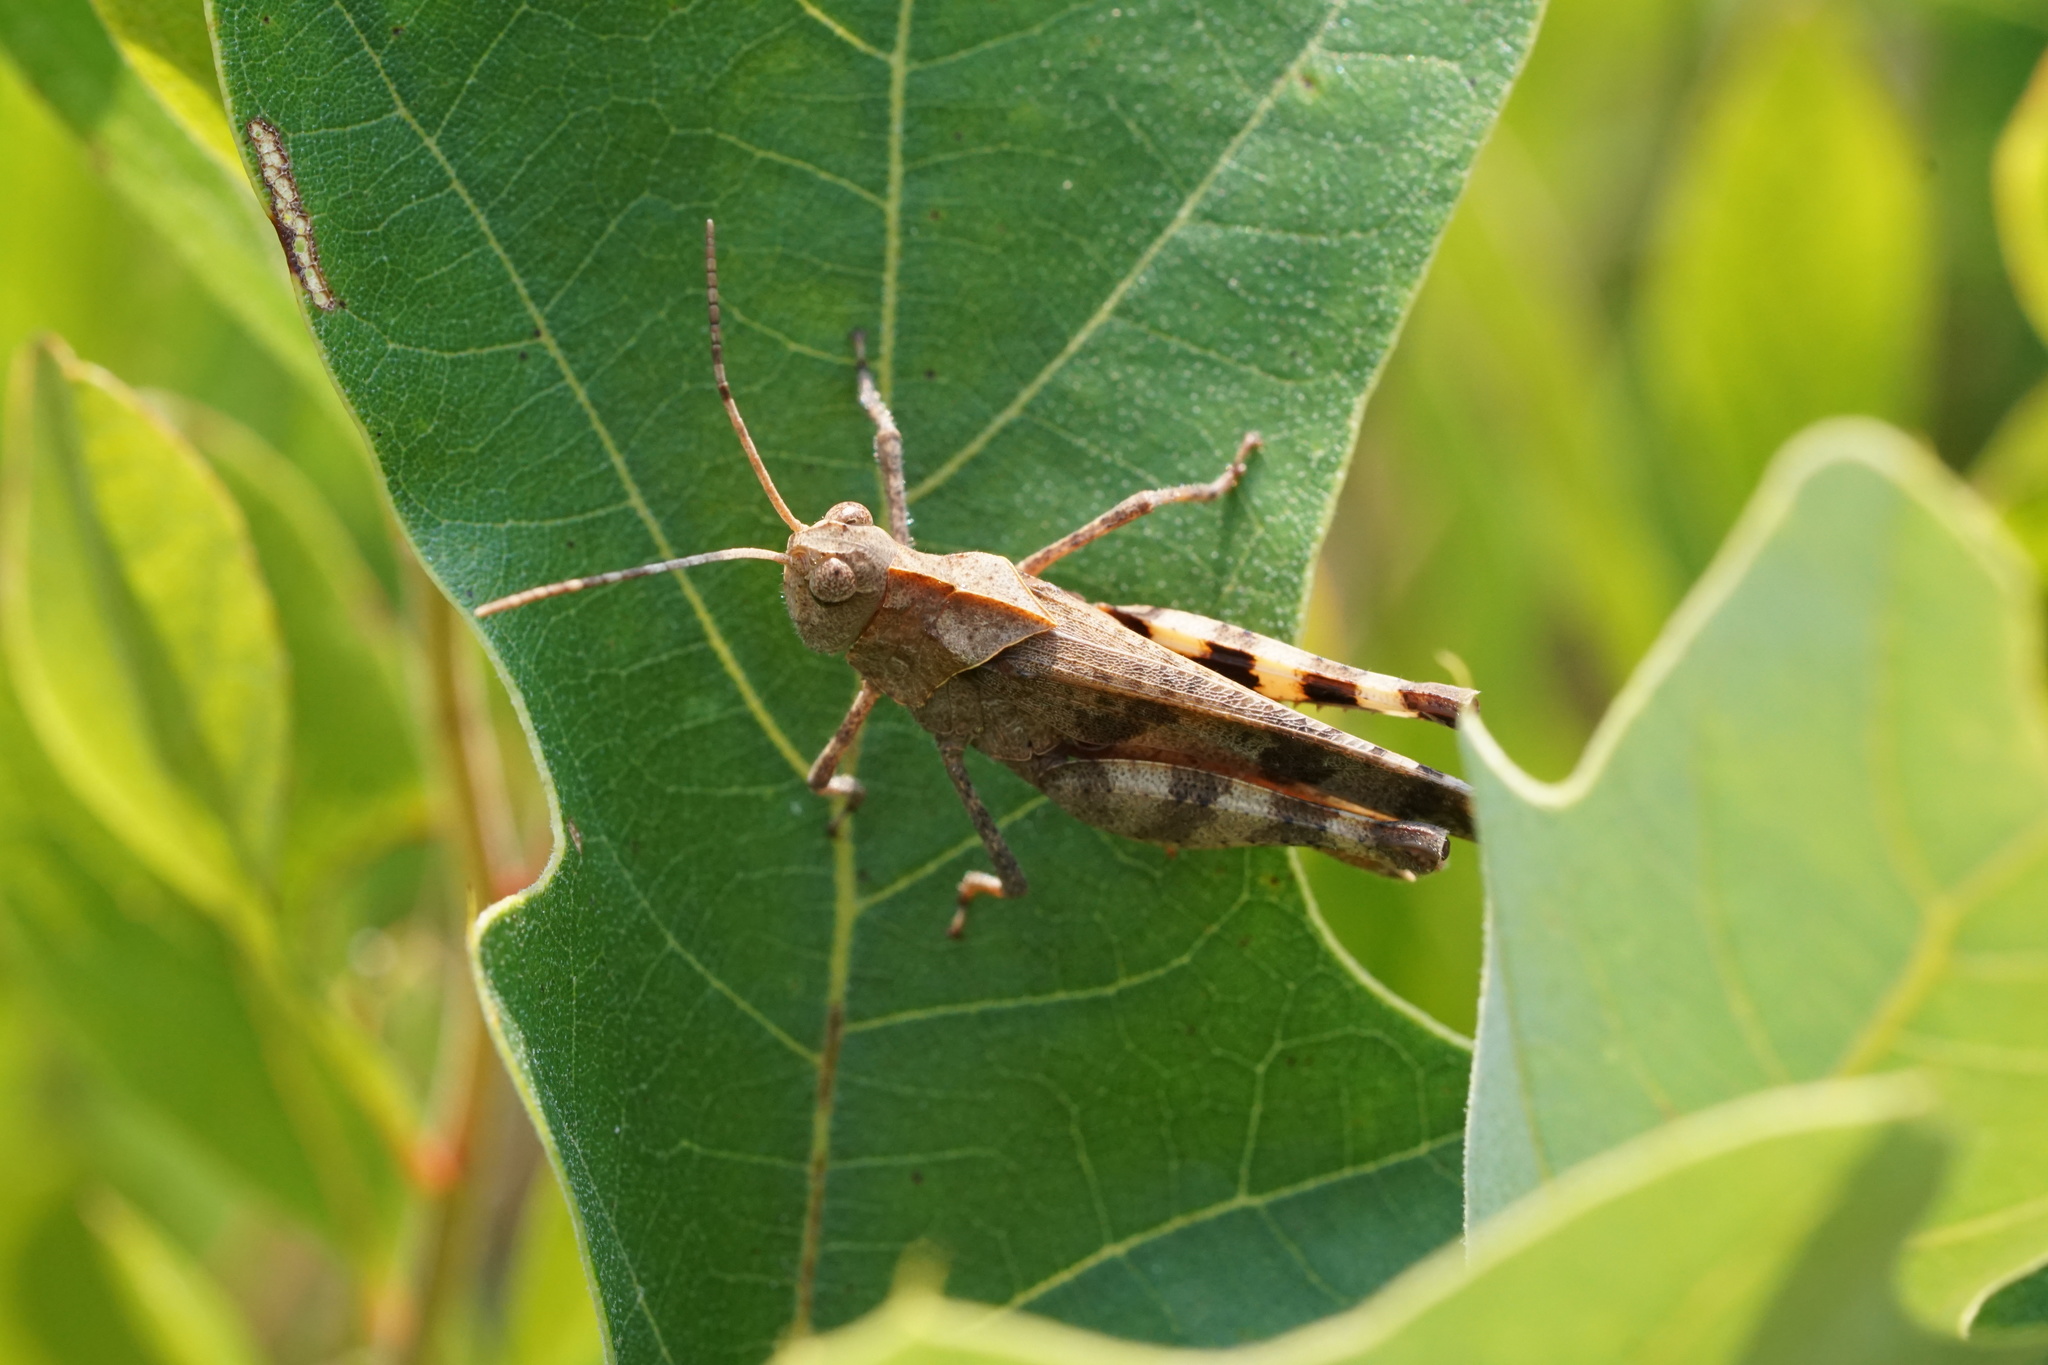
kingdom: Animalia
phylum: Arthropoda
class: Insecta
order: Orthoptera
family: Acrididae
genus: Spharagemon
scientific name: Spharagemon bolli
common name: Boll's grasshopper
